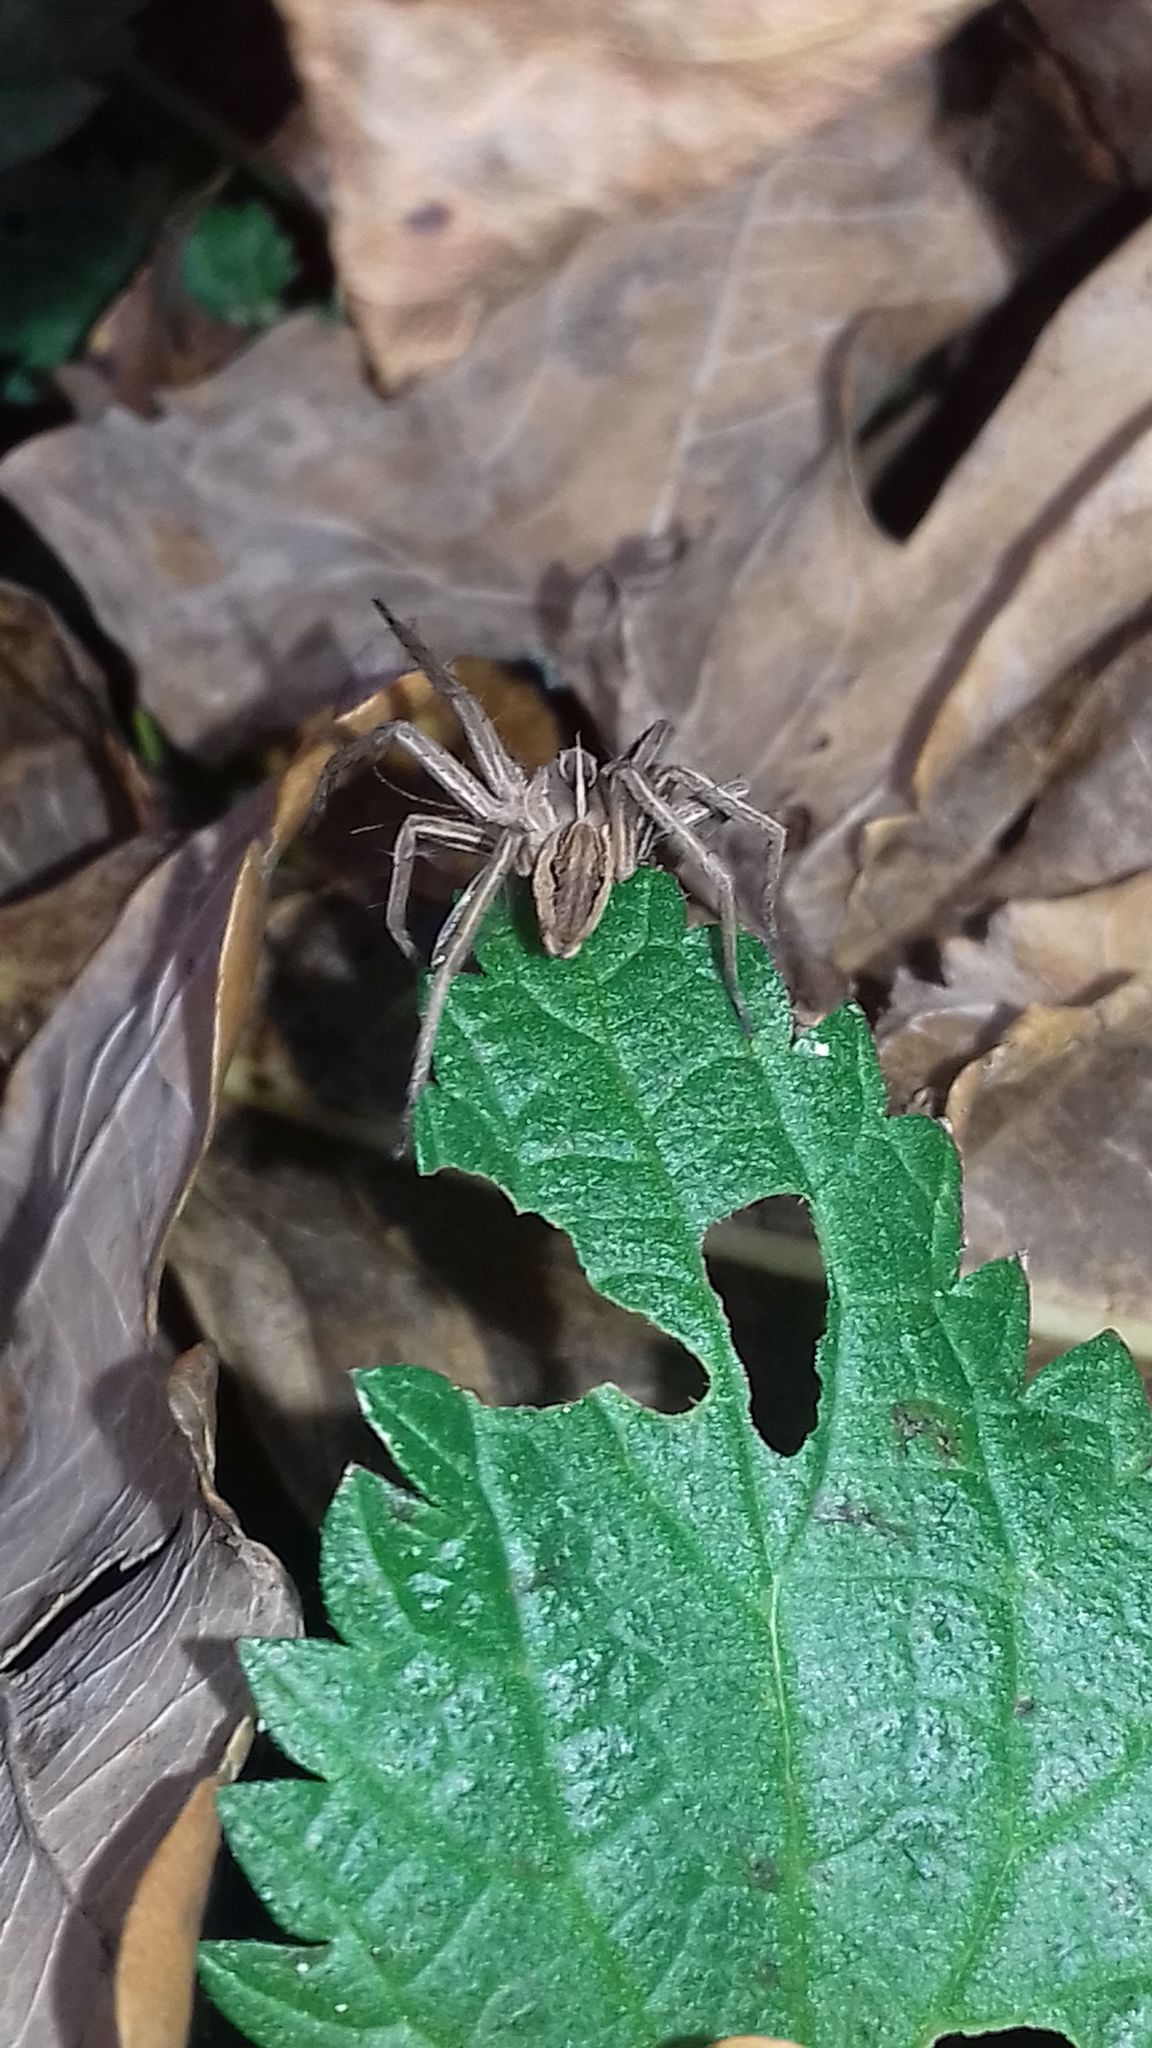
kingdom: Animalia
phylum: Arthropoda
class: Arachnida
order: Araneae
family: Pisauridae
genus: Pisaura
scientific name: Pisaura mirabilis
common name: Tent spider
